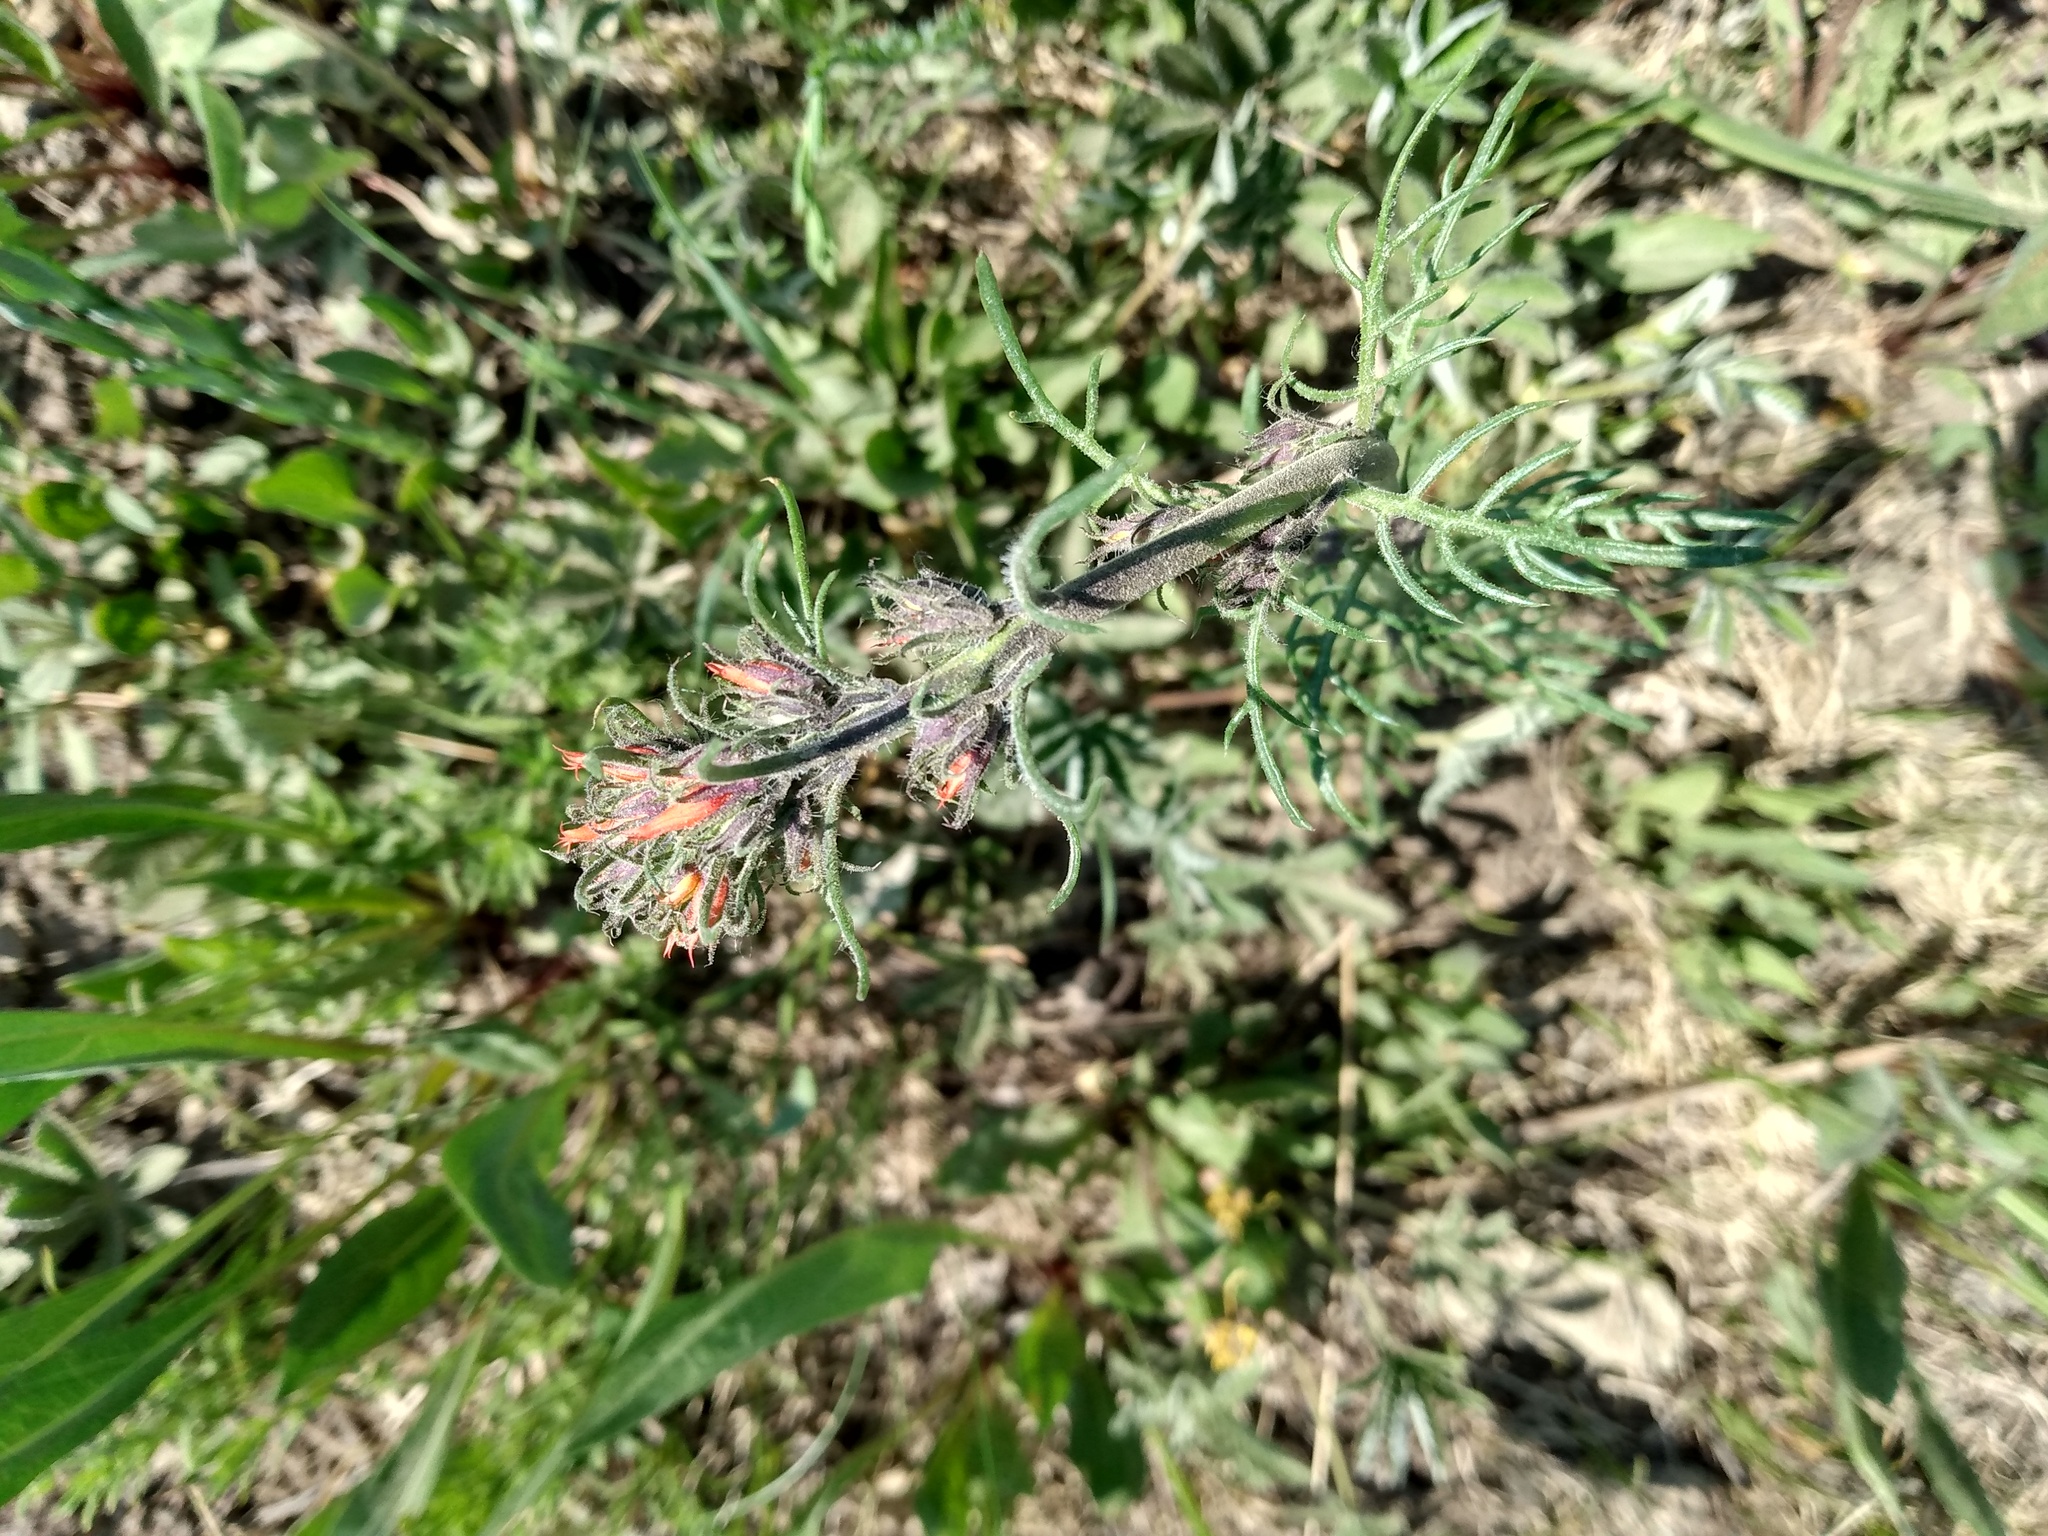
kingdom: Plantae
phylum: Tracheophyta
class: Magnoliopsida
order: Ericales
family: Polemoniaceae
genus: Ipomopsis
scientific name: Ipomopsis aggregata
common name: Scarlet gilia
